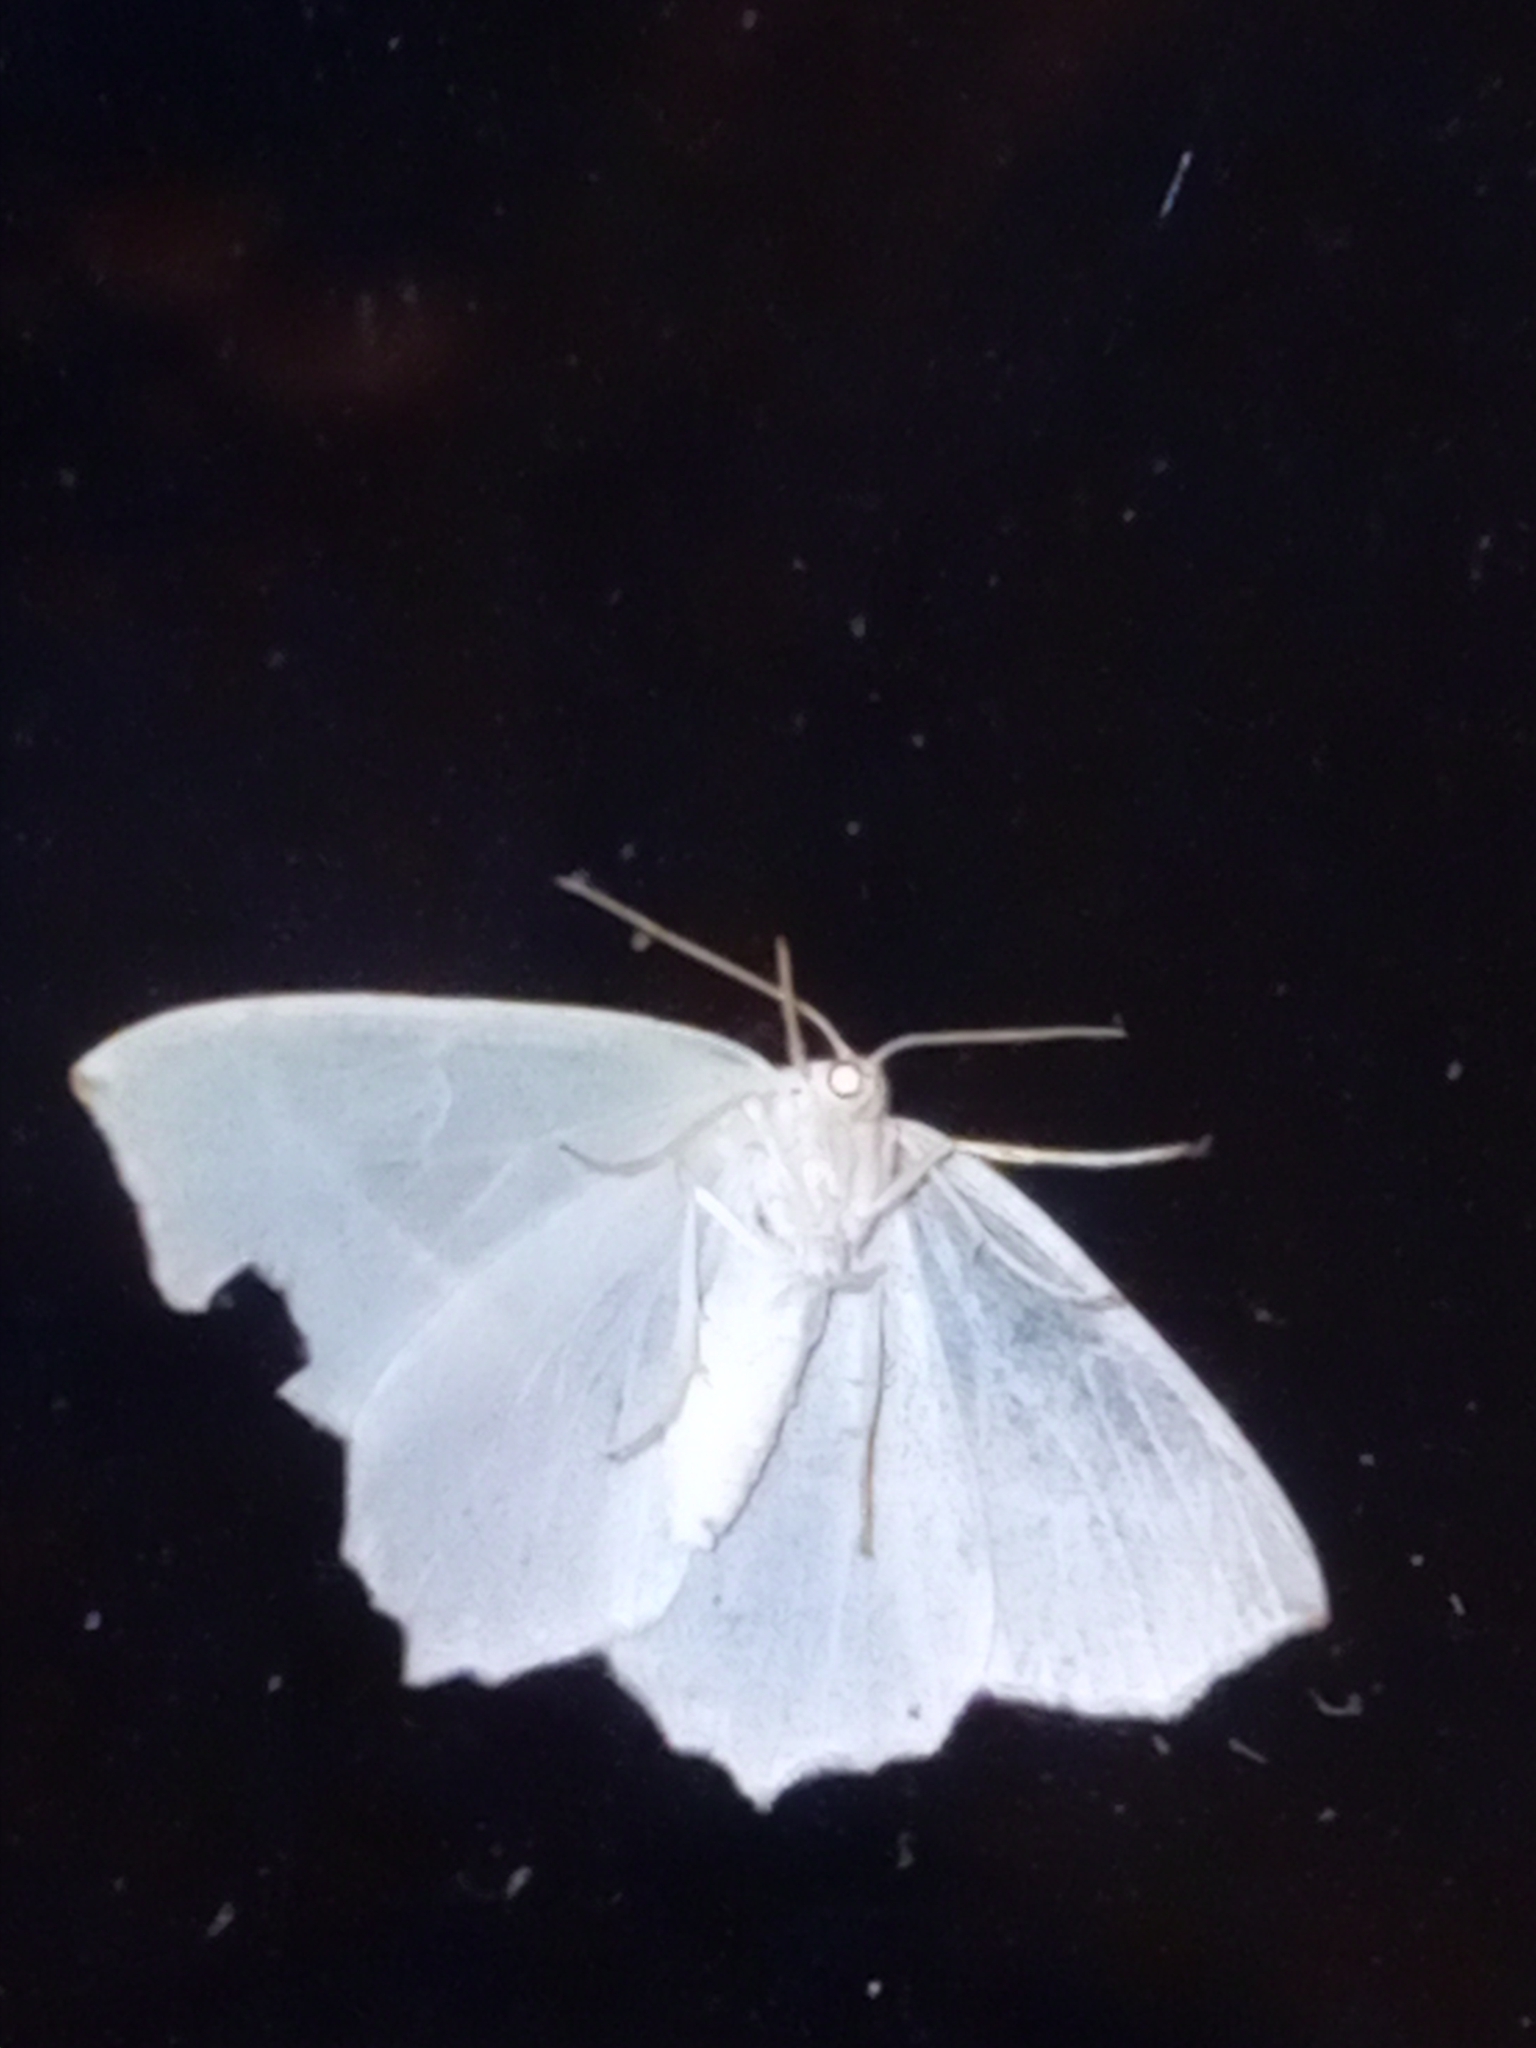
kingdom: Animalia
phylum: Arthropoda
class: Insecta
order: Lepidoptera
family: Geometridae
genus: Campaea
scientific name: Campaea margaritaria
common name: Light emerald
